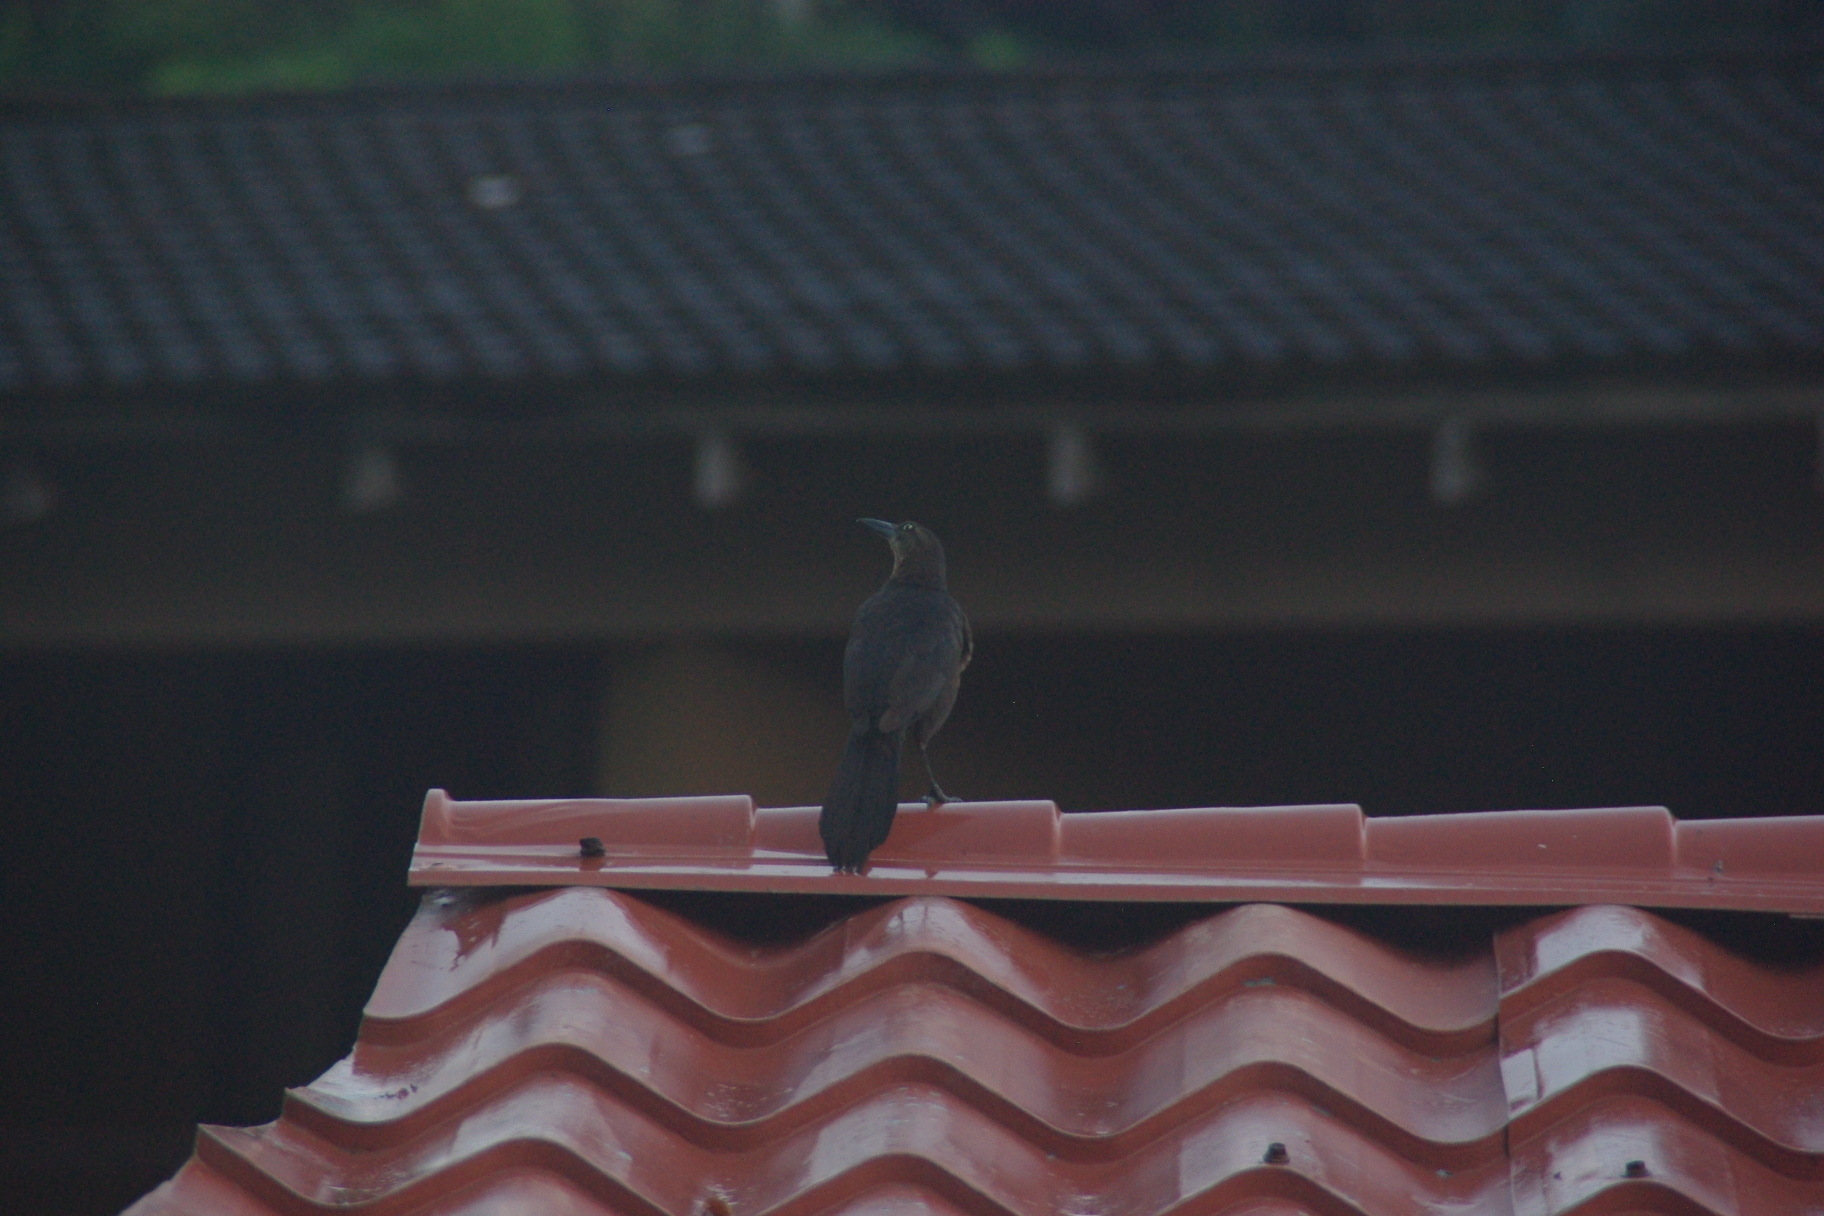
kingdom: Animalia
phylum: Chordata
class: Aves
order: Passeriformes
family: Icteridae
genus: Quiscalus
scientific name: Quiscalus mexicanus
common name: Great-tailed grackle
